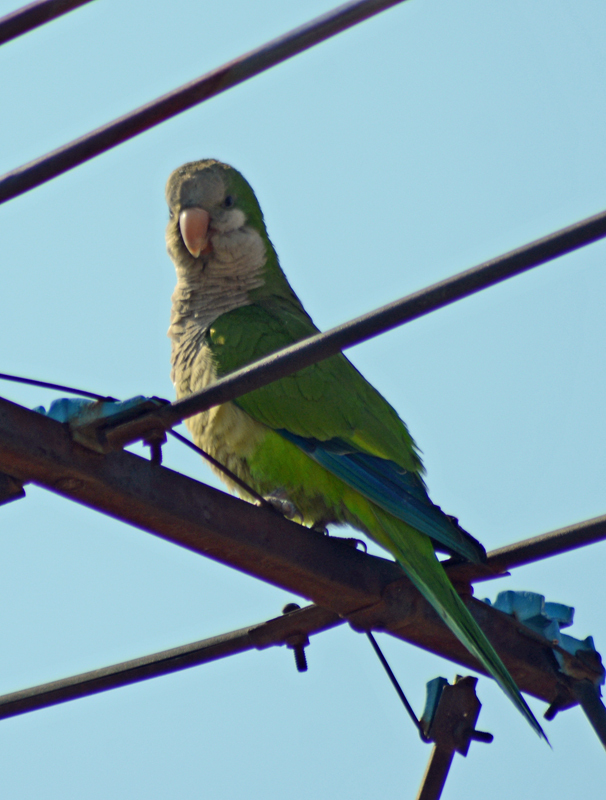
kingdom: Animalia
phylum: Chordata
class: Aves
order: Psittaciformes
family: Psittacidae
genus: Myiopsitta
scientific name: Myiopsitta monachus
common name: Monk parakeet
